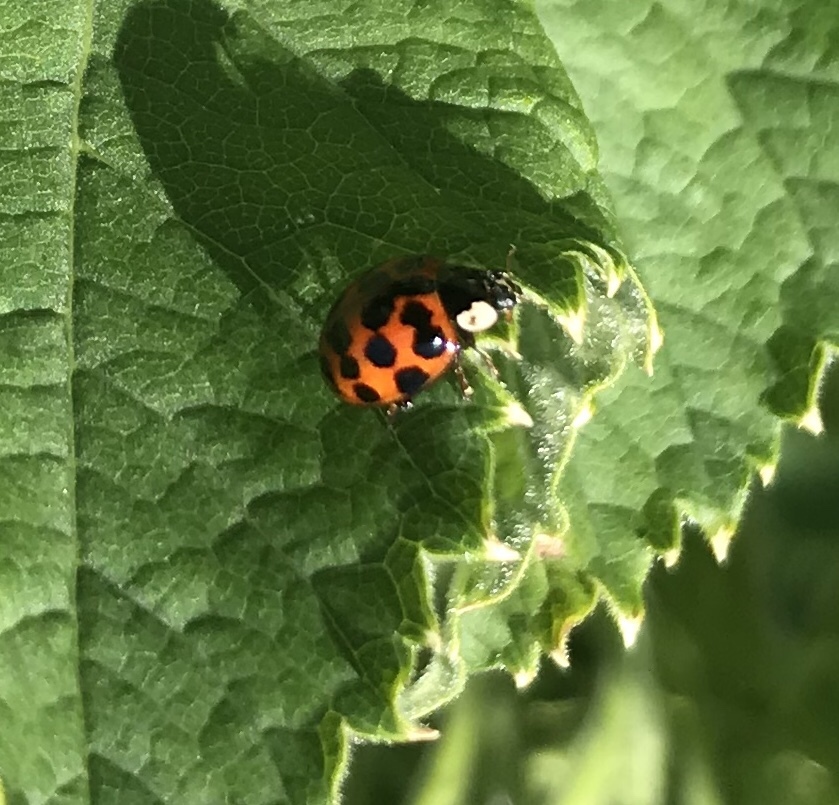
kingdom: Animalia
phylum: Arthropoda
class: Insecta
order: Coleoptera
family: Coccinellidae
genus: Harmonia
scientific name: Harmonia axyridis
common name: Harlequin ladybird
